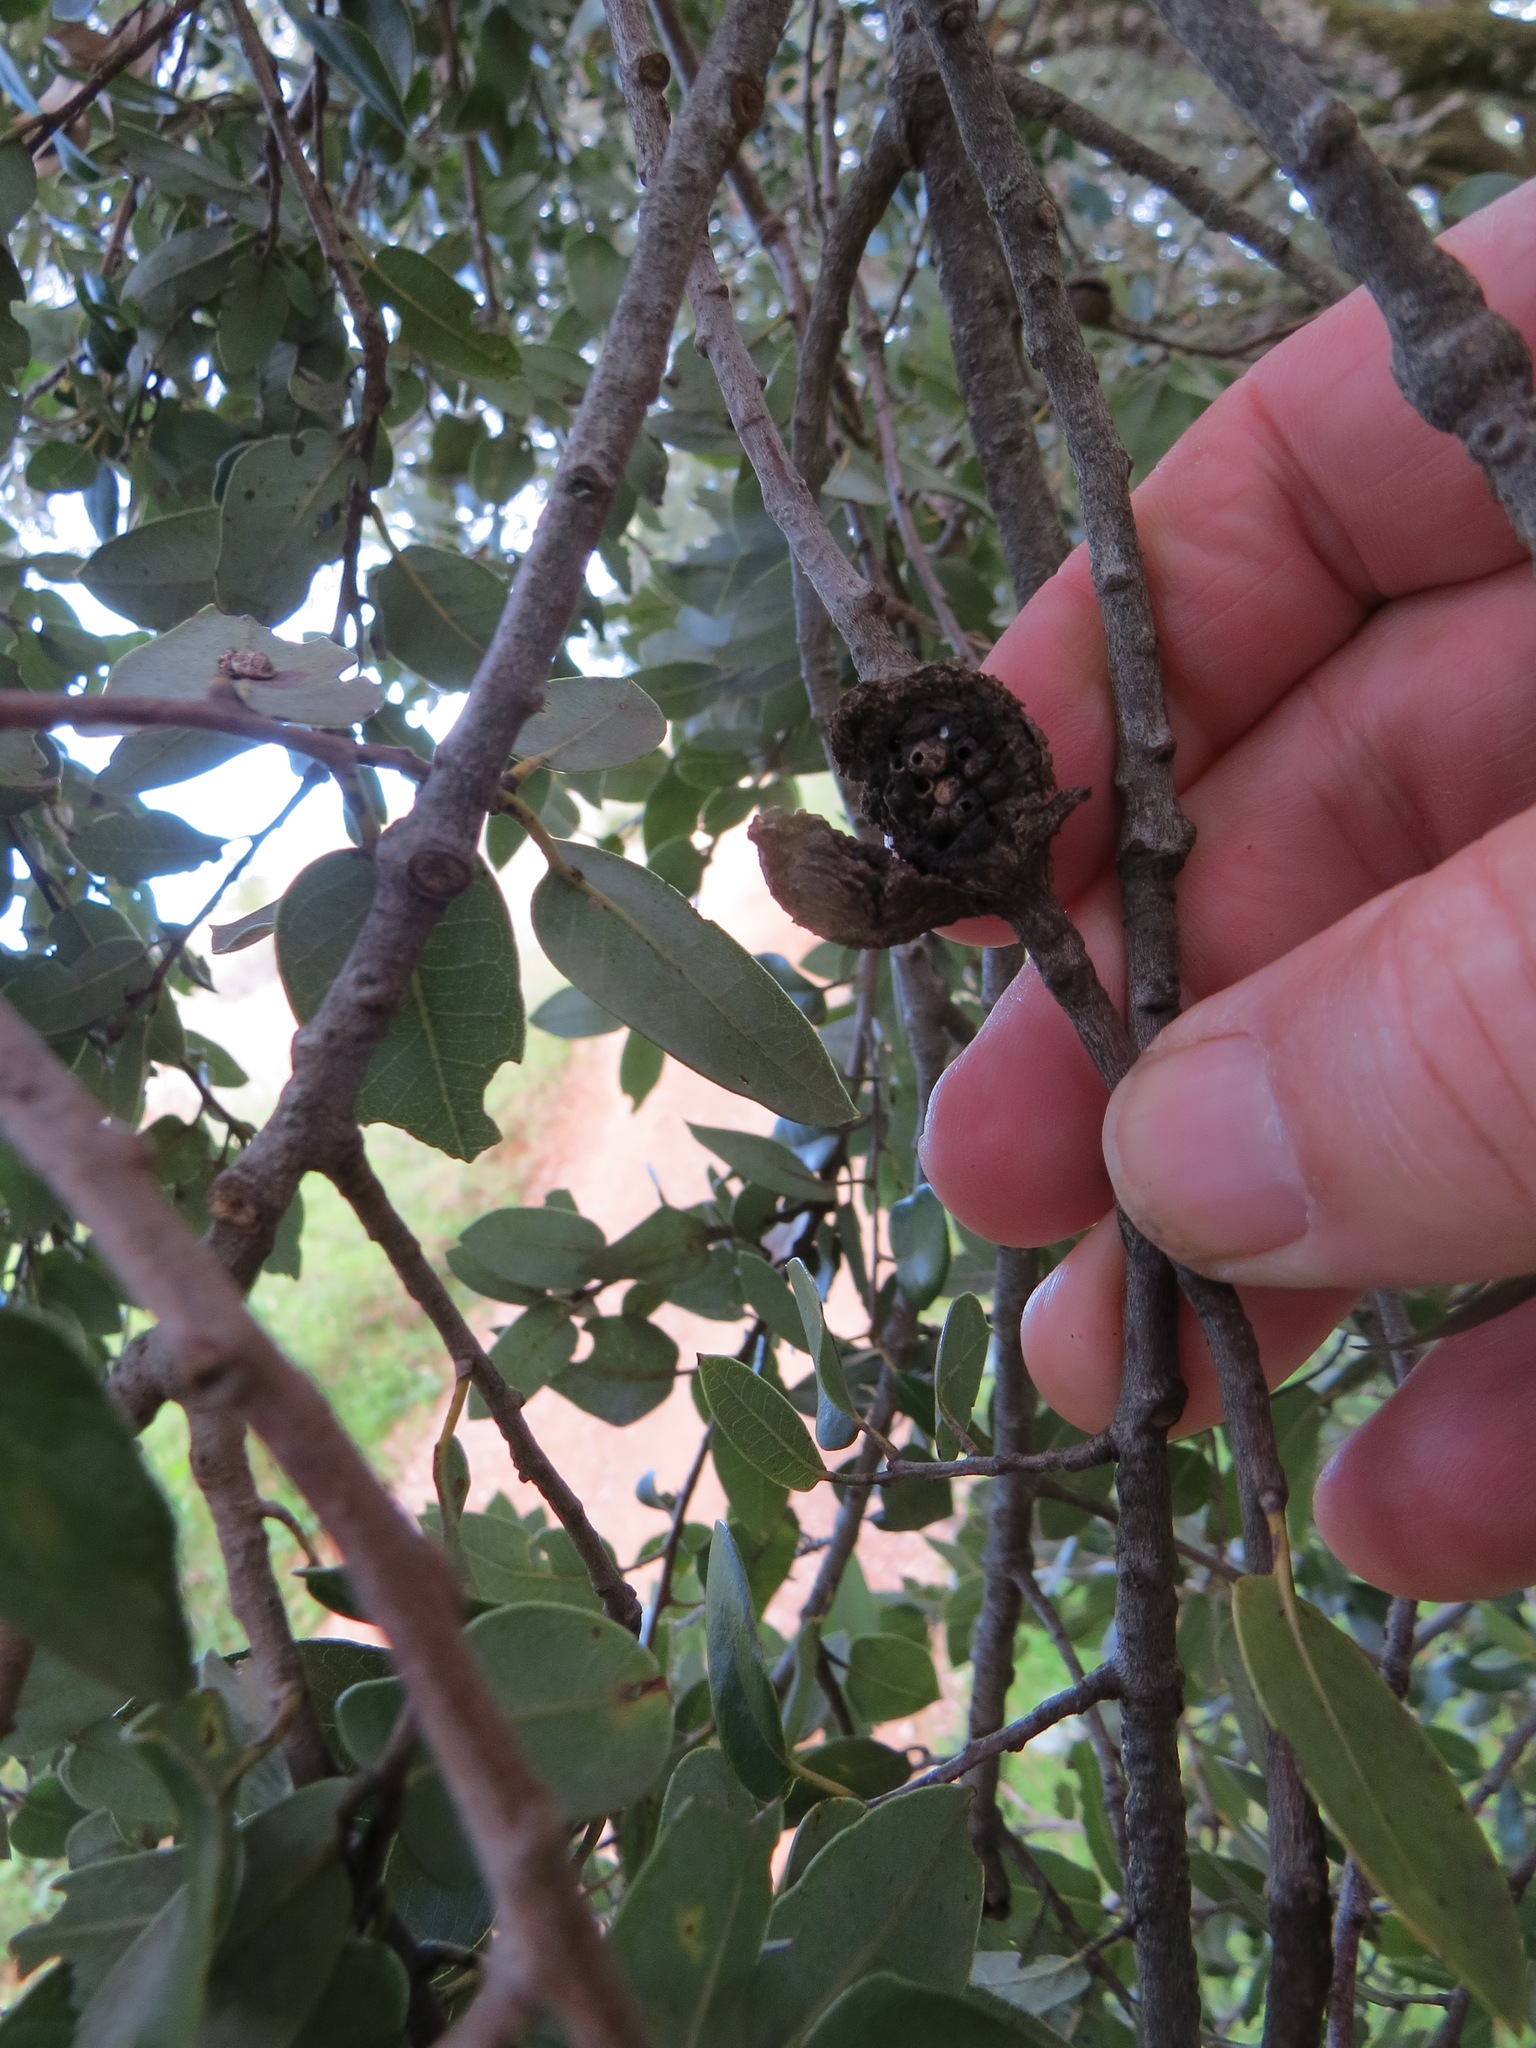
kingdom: Animalia
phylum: Arthropoda
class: Insecta
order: Hymenoptera
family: Cynipidae
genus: Dryocosmus
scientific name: Dryocosmus
